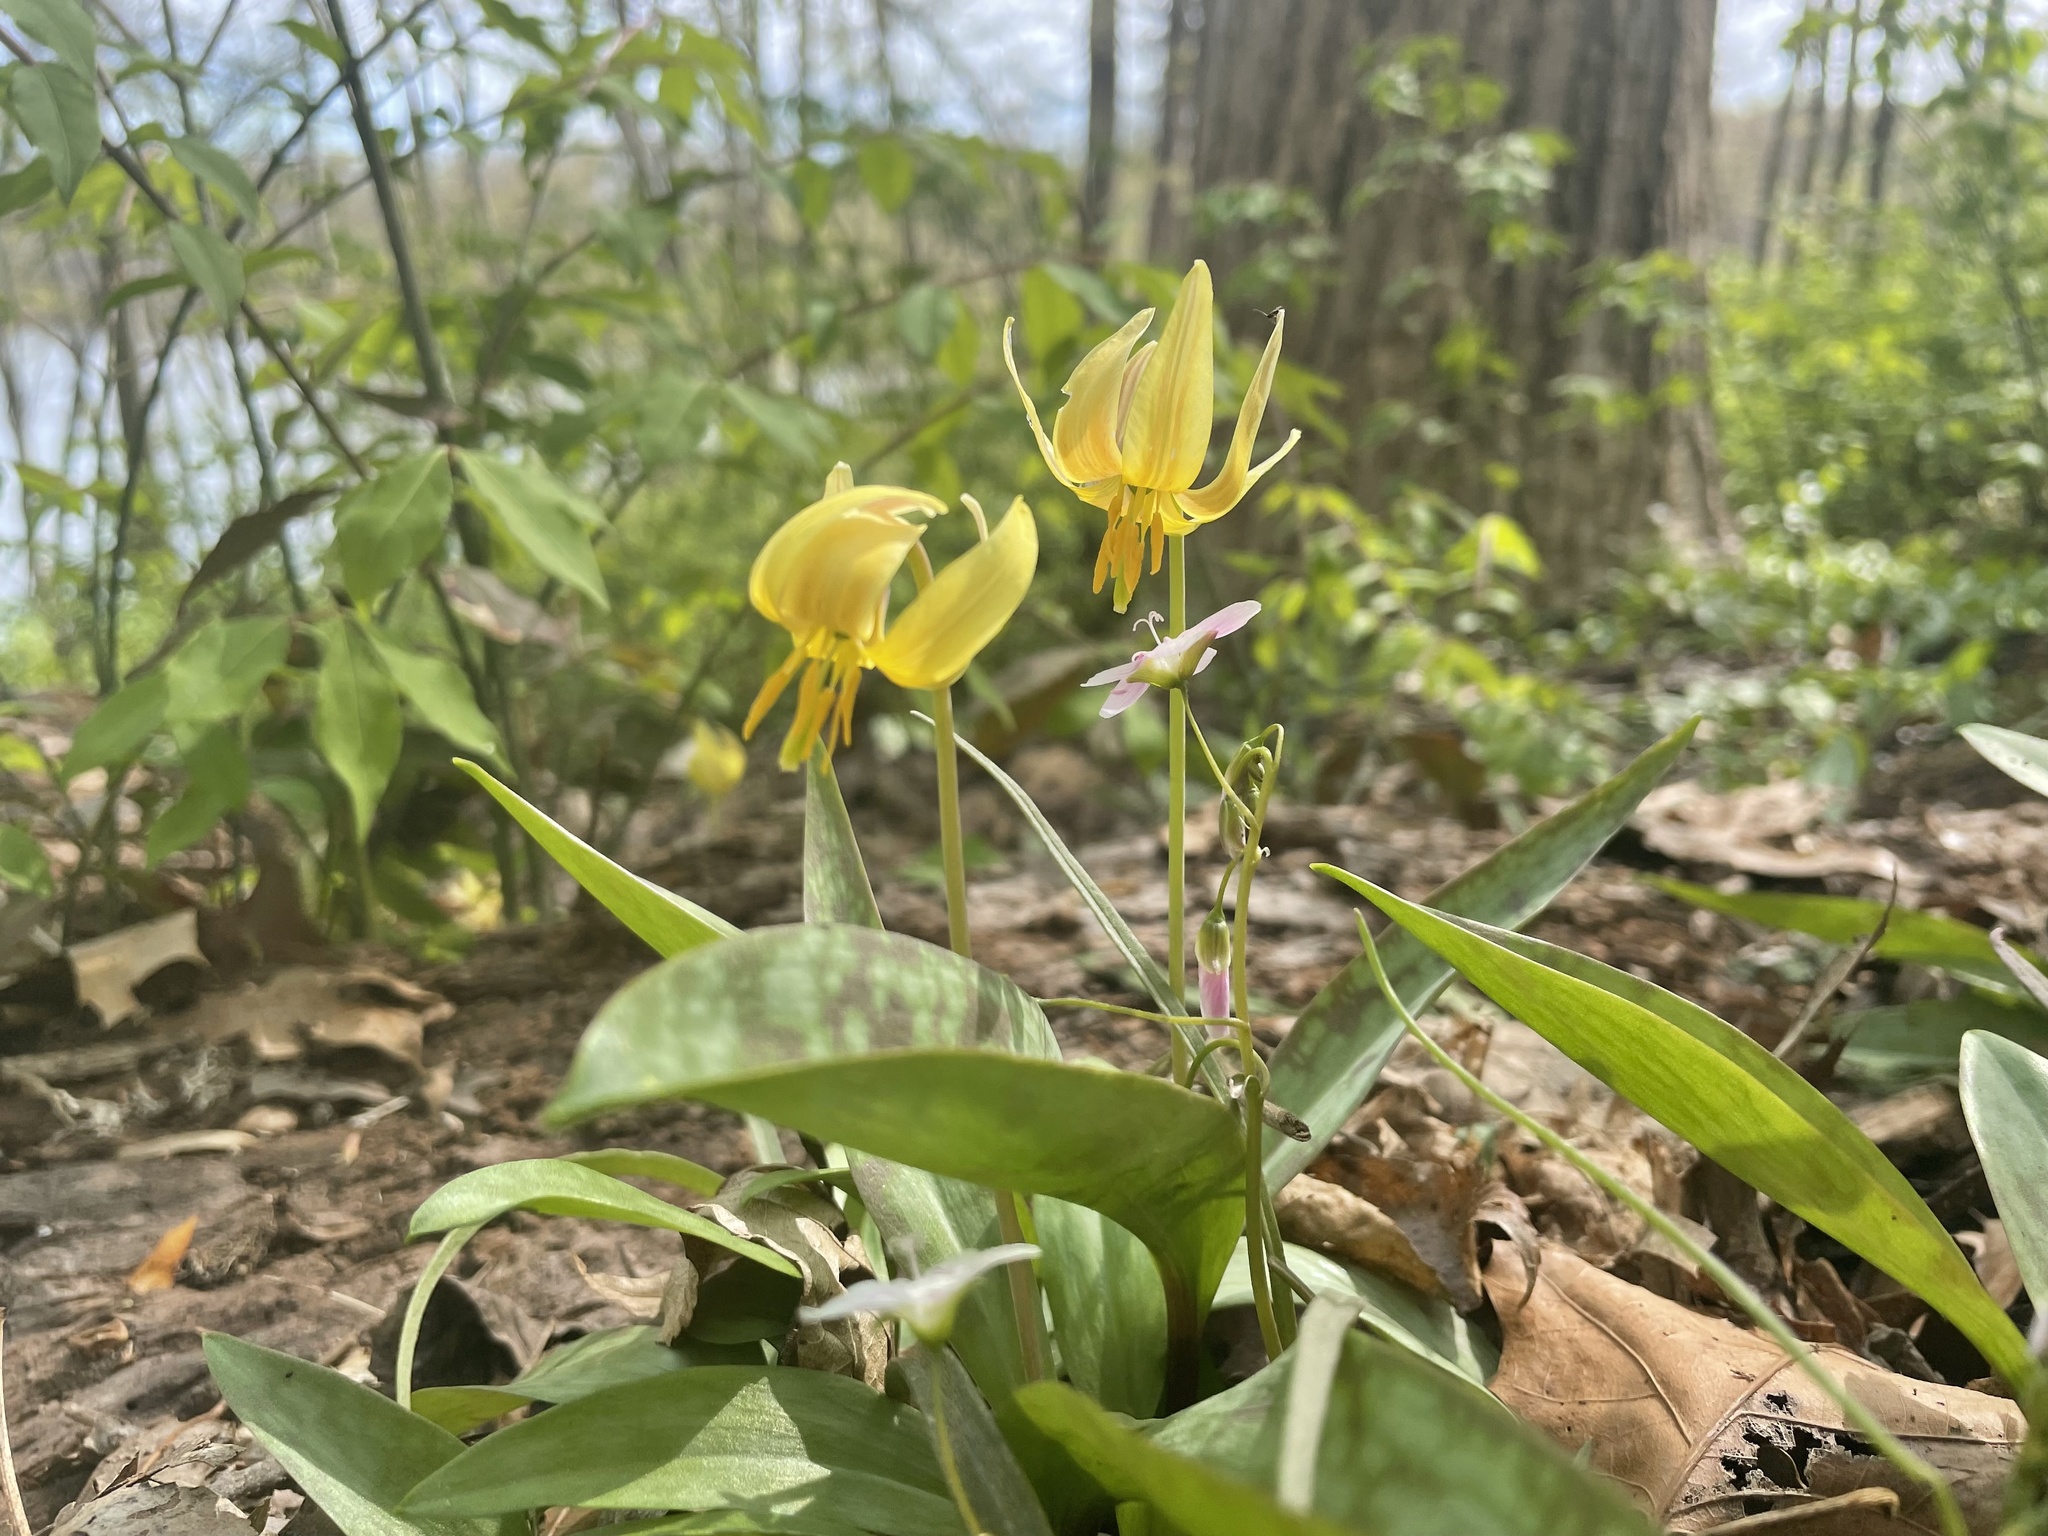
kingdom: Plantae
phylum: Tracheophyta
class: Liliopsida
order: Liliales
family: Liliaceae
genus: Erythronium
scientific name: Erythronium americanum
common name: Yellow adder's-tongue
